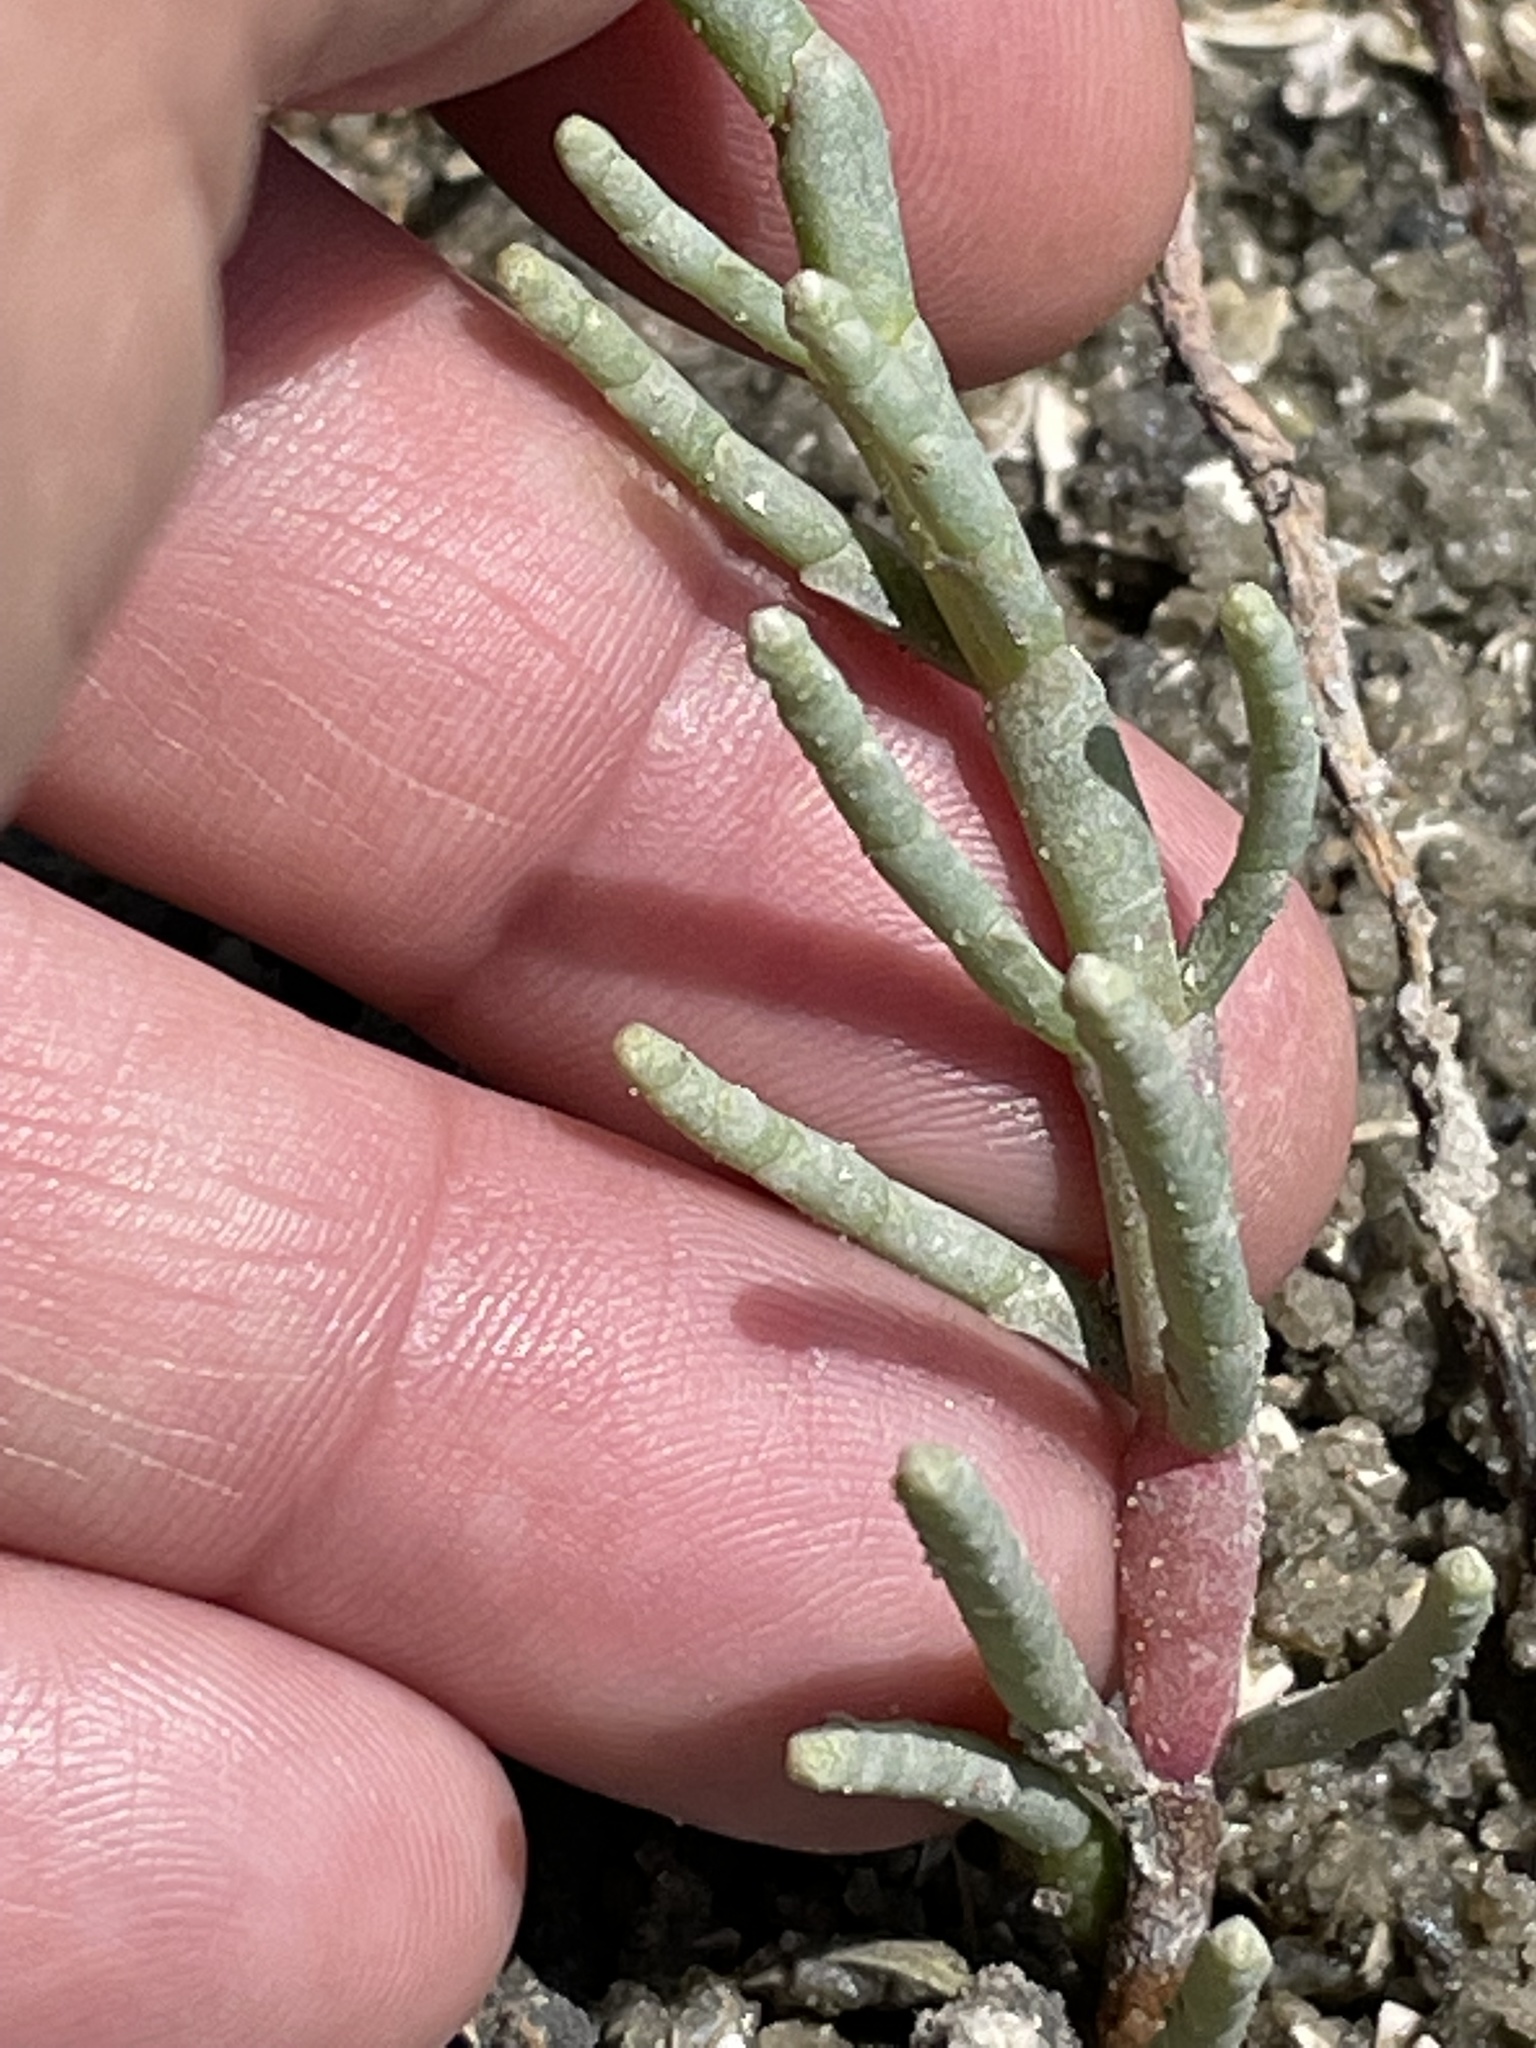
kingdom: Plantae
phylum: Tracheophyta
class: Magnoliopsida
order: Caryophyllales
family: Amaranthaceae
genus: Salicornia
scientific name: Salicornia virginica
